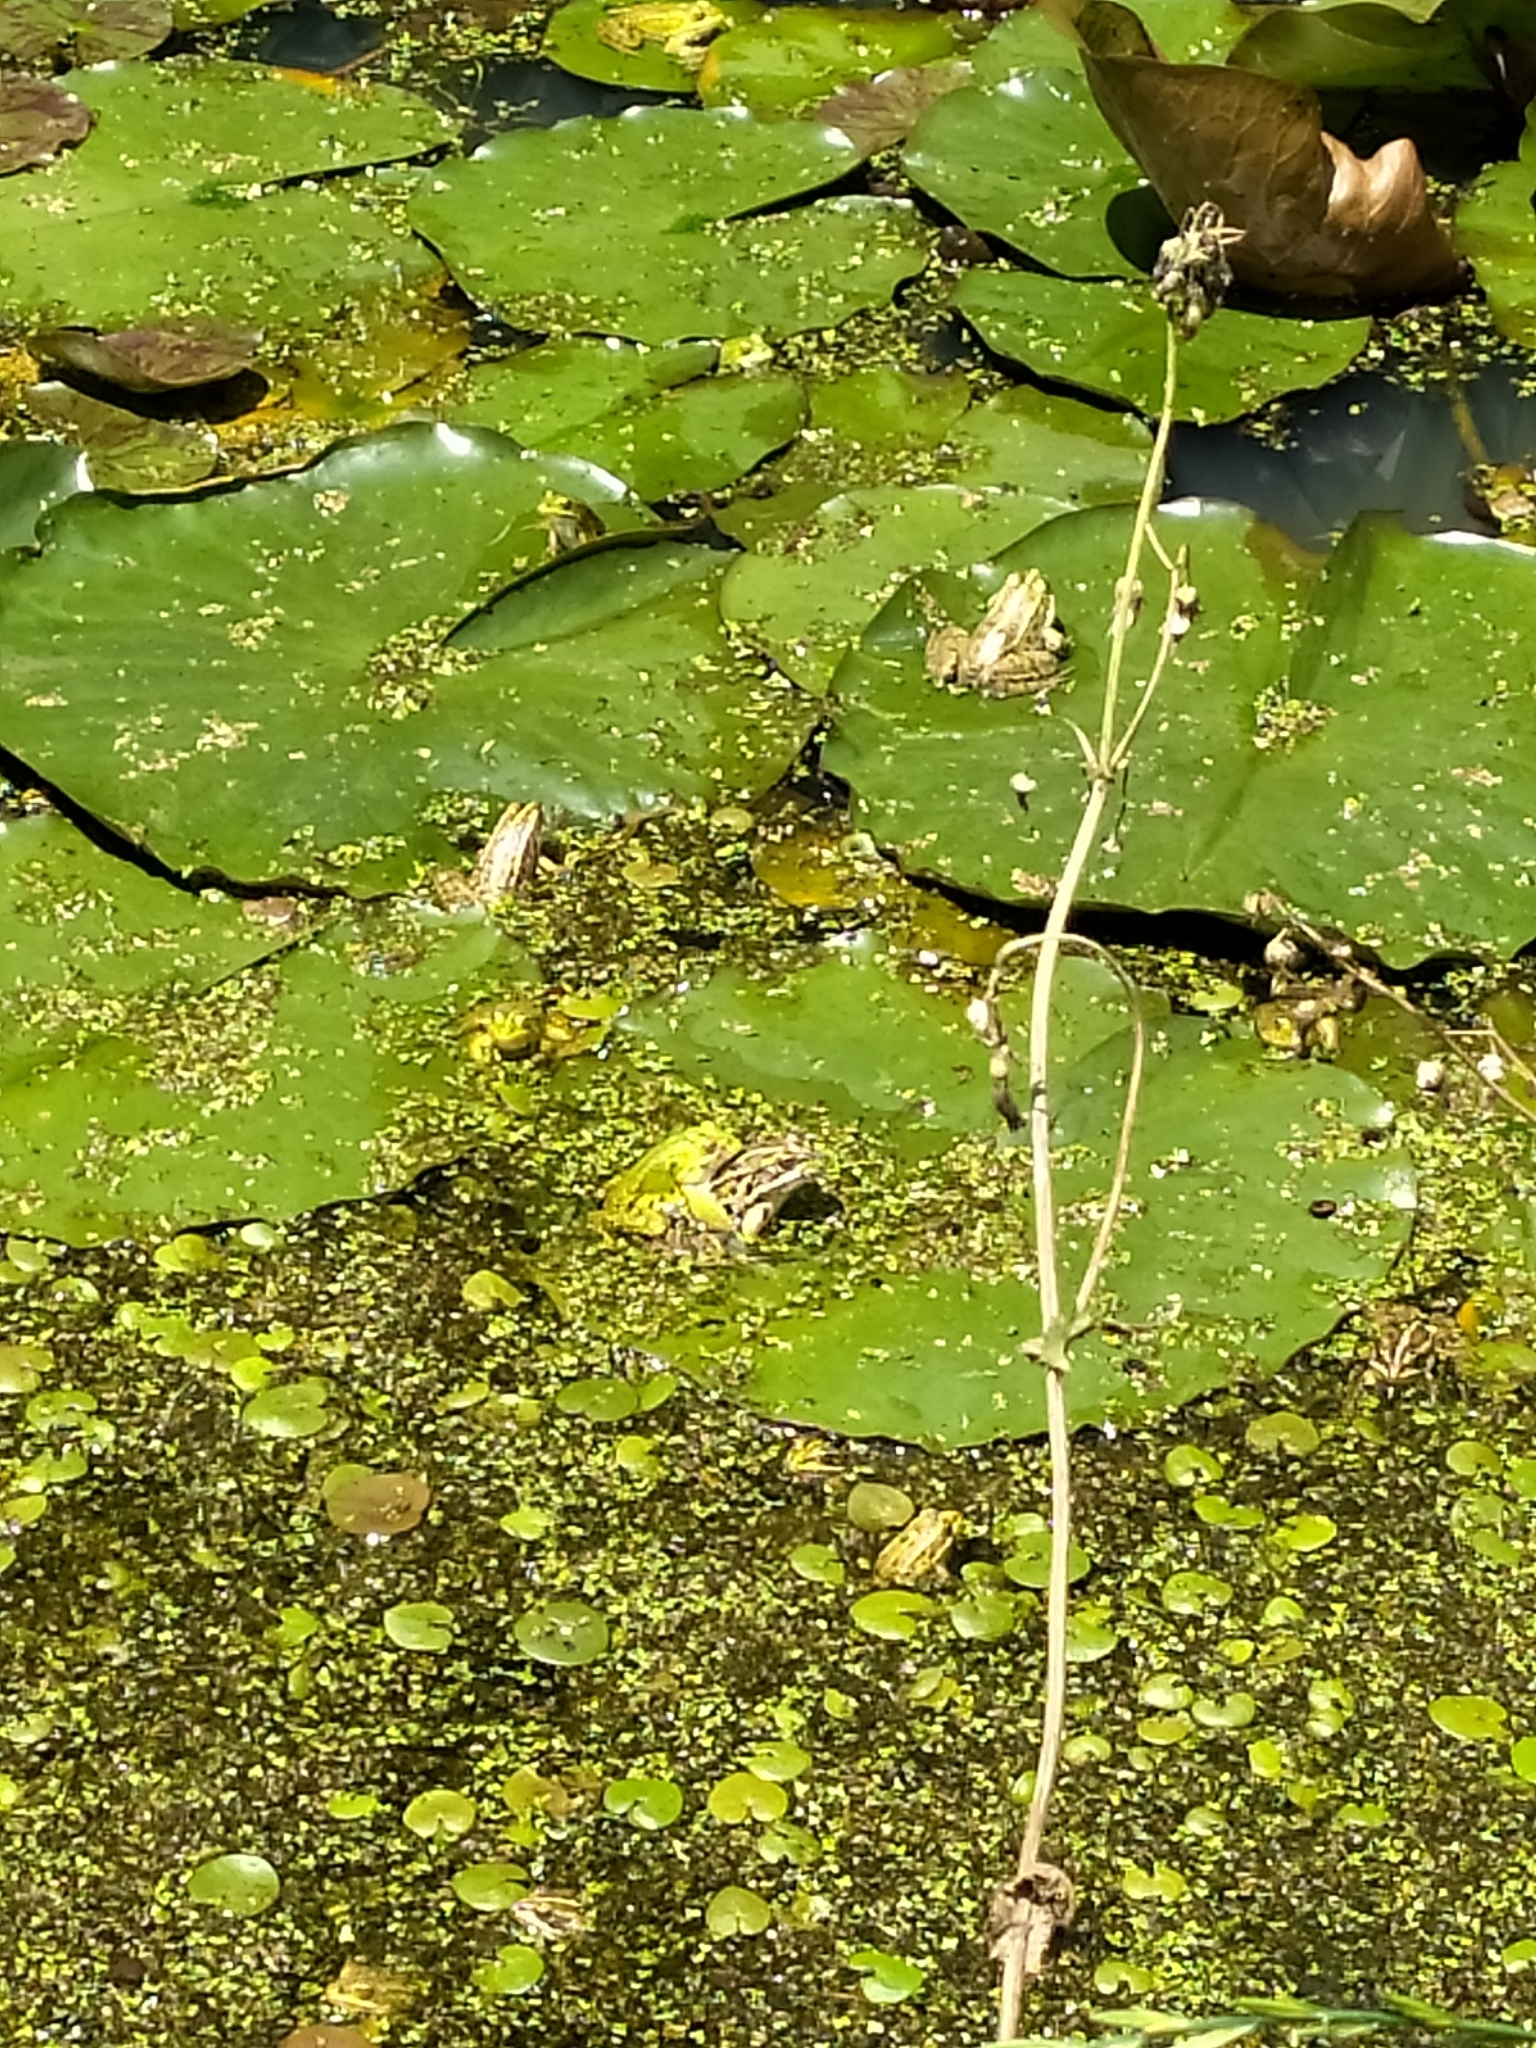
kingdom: Animalia
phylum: Chordata
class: Amphibia
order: Anura
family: Ranidae
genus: Pelophylax
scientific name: Pelophylax
